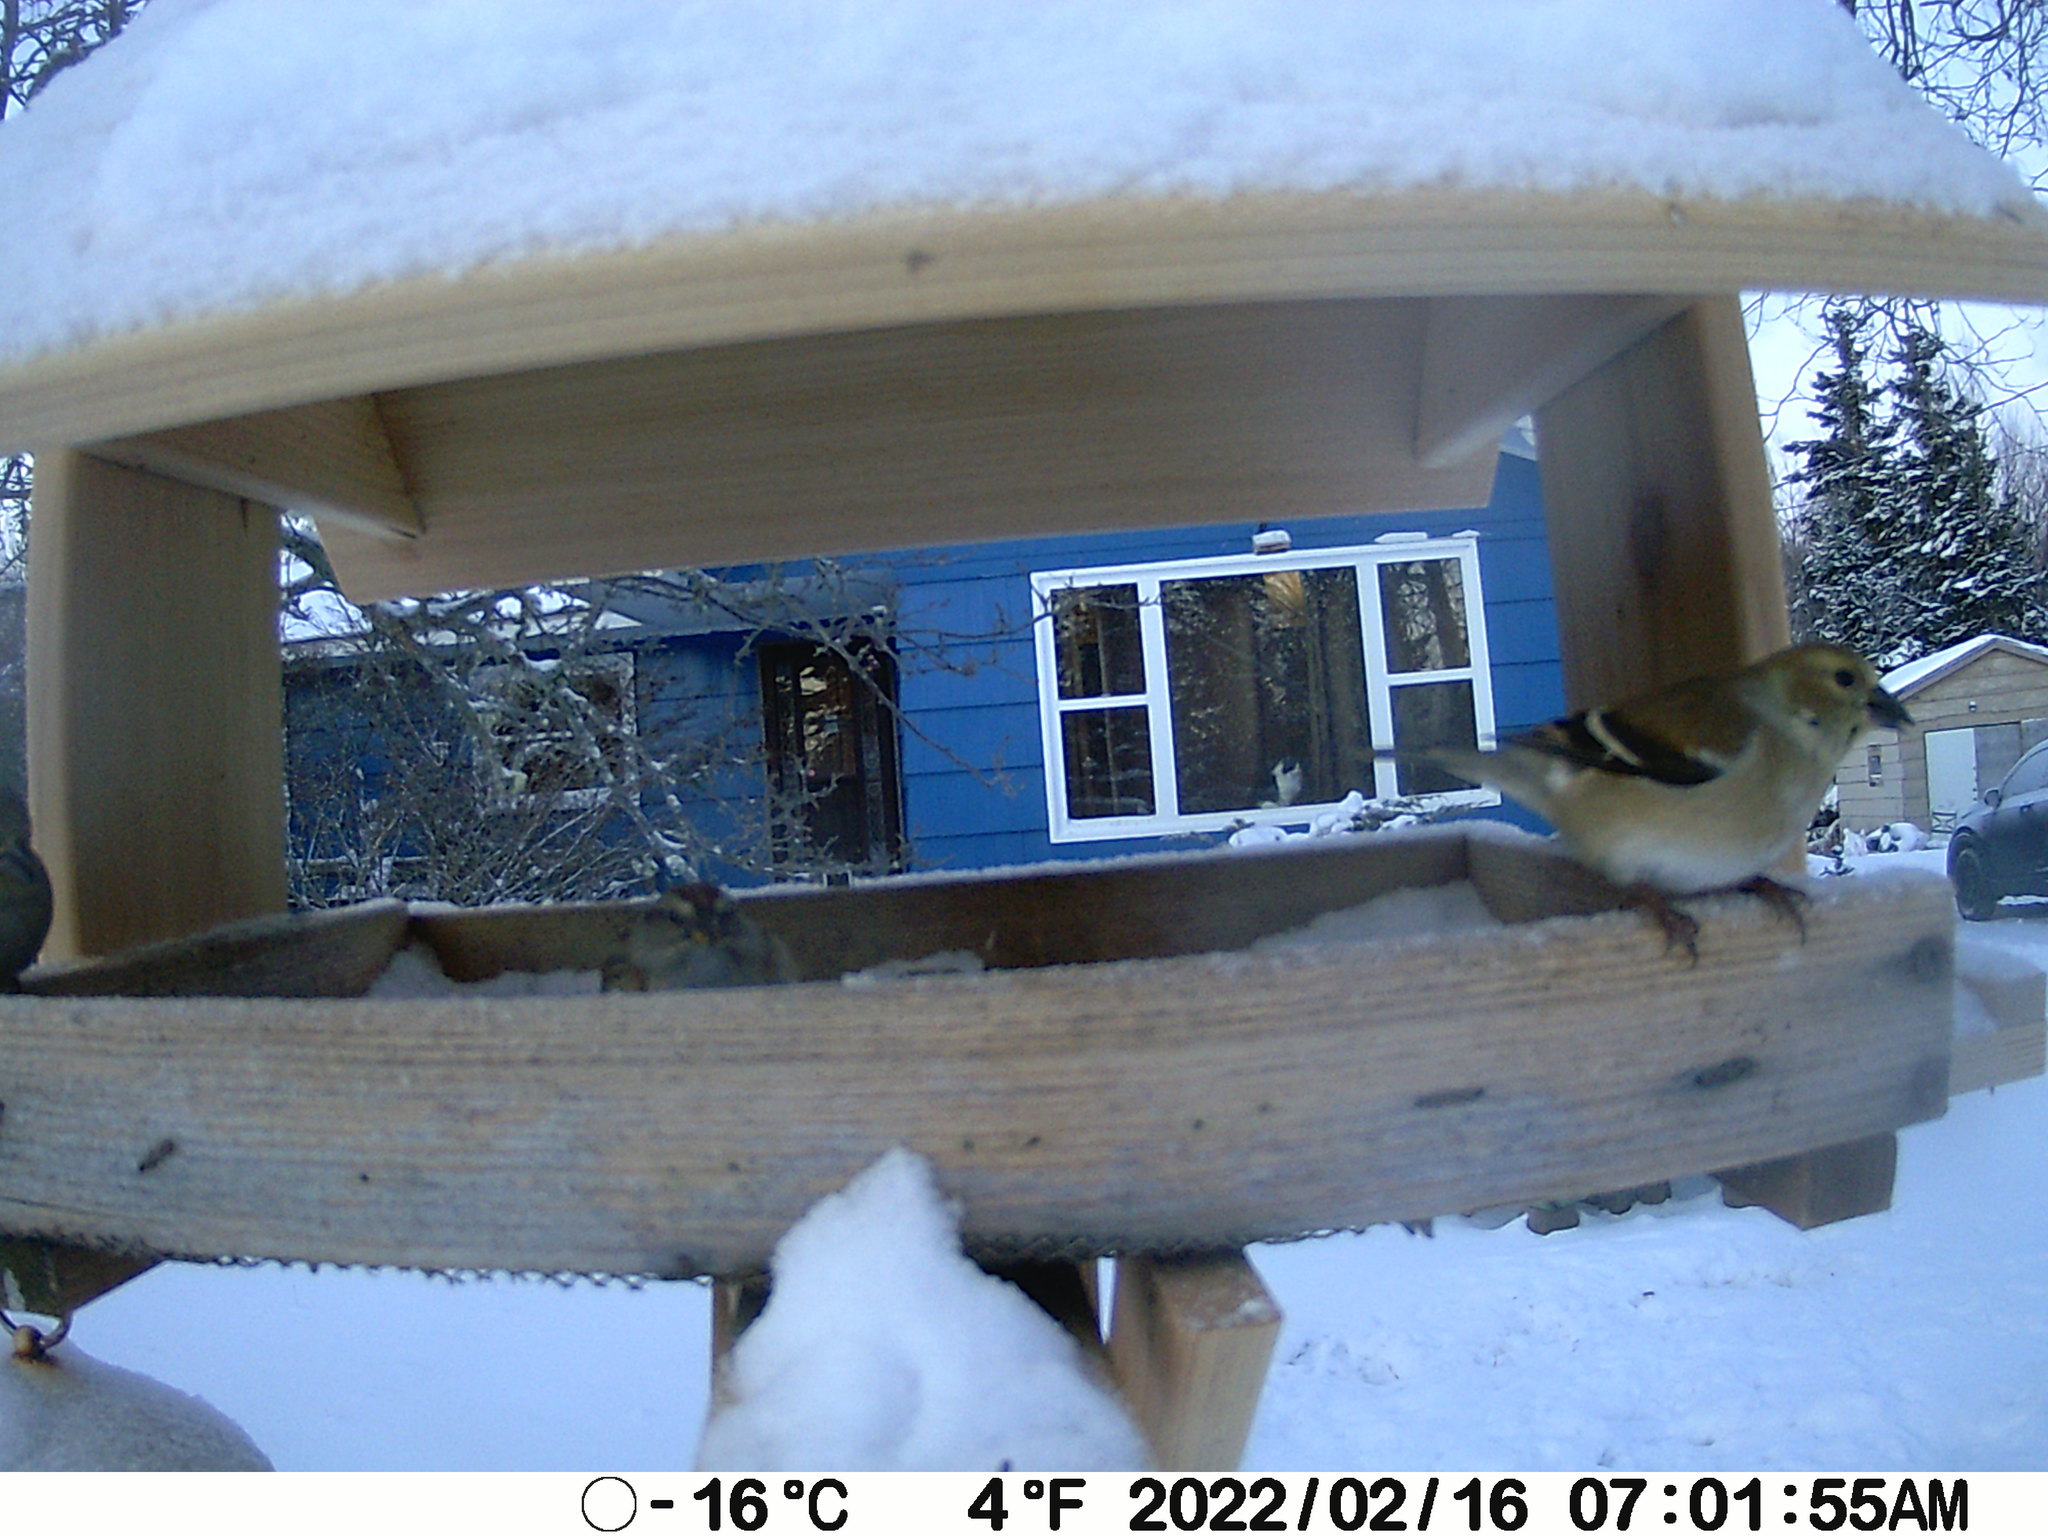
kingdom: Animalia
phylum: Chordata
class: Aves
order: Passeriformes
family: Fringillidae
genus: Spinus
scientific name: Spinus tristis
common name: American goldfinch
